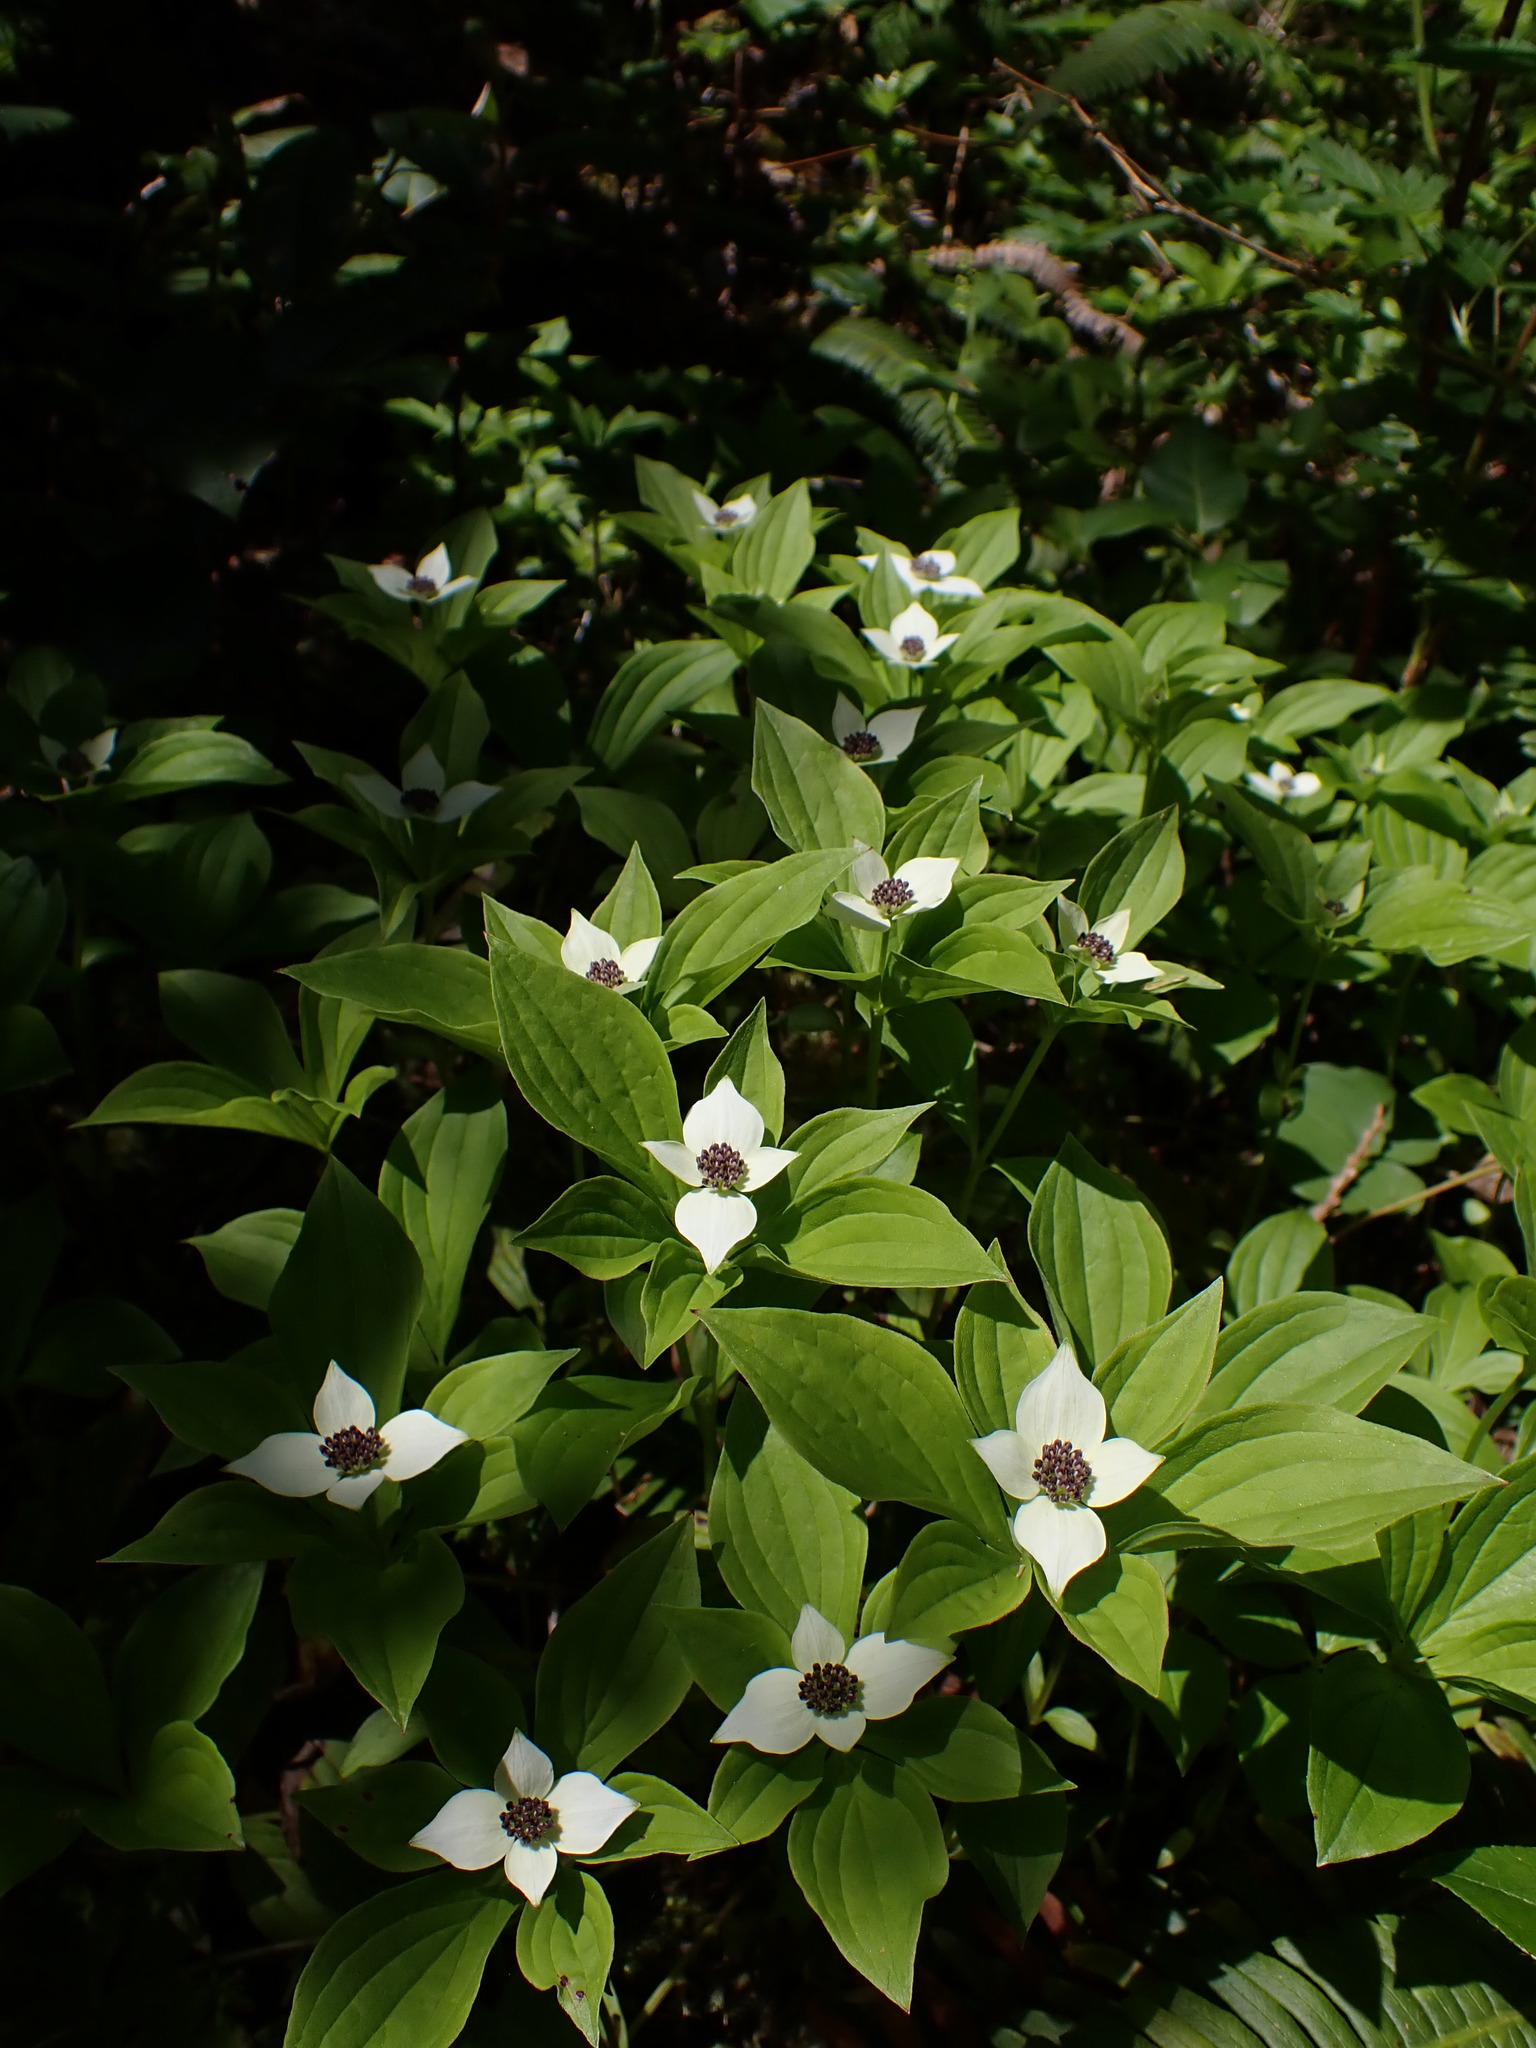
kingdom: Plantae
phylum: Tracheophyta
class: Magnoliopsida
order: Cornales
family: Cornaceae
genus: Cornus
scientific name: Cornus unalaschkensis
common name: Alaska bunchberry
